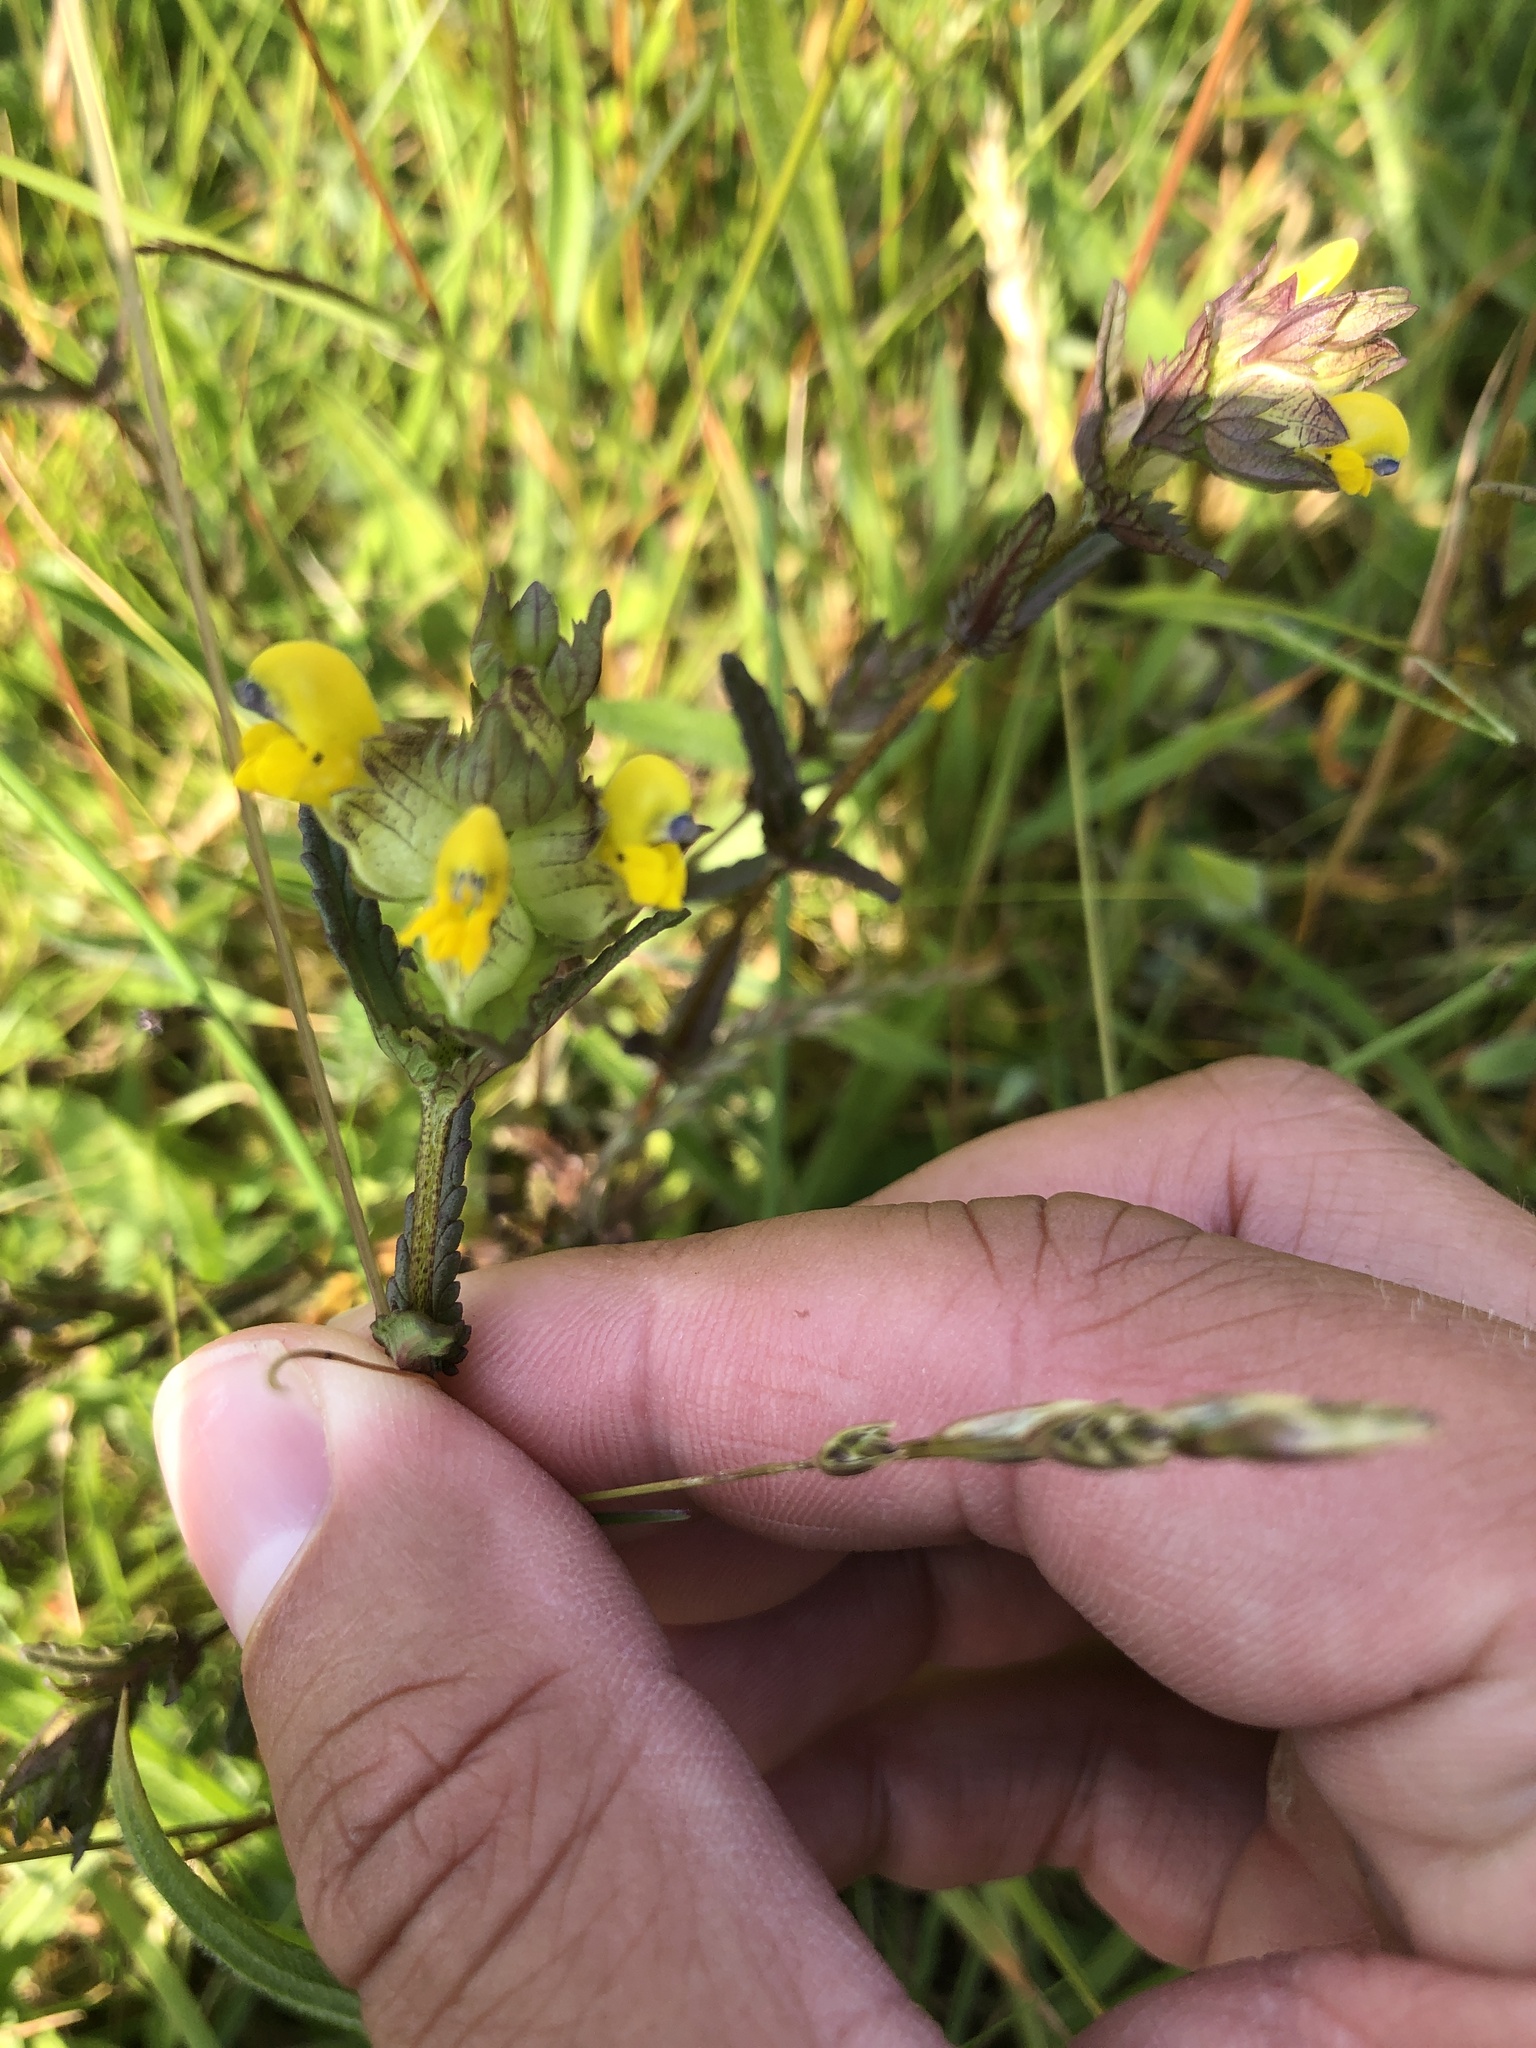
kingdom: Plantae
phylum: Tracheophyta
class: Magnoliopsida
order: Lamiales
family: Orobanchaceae
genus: Rhinanthus
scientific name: Rhinanthus minor
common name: Yellow-rattle
